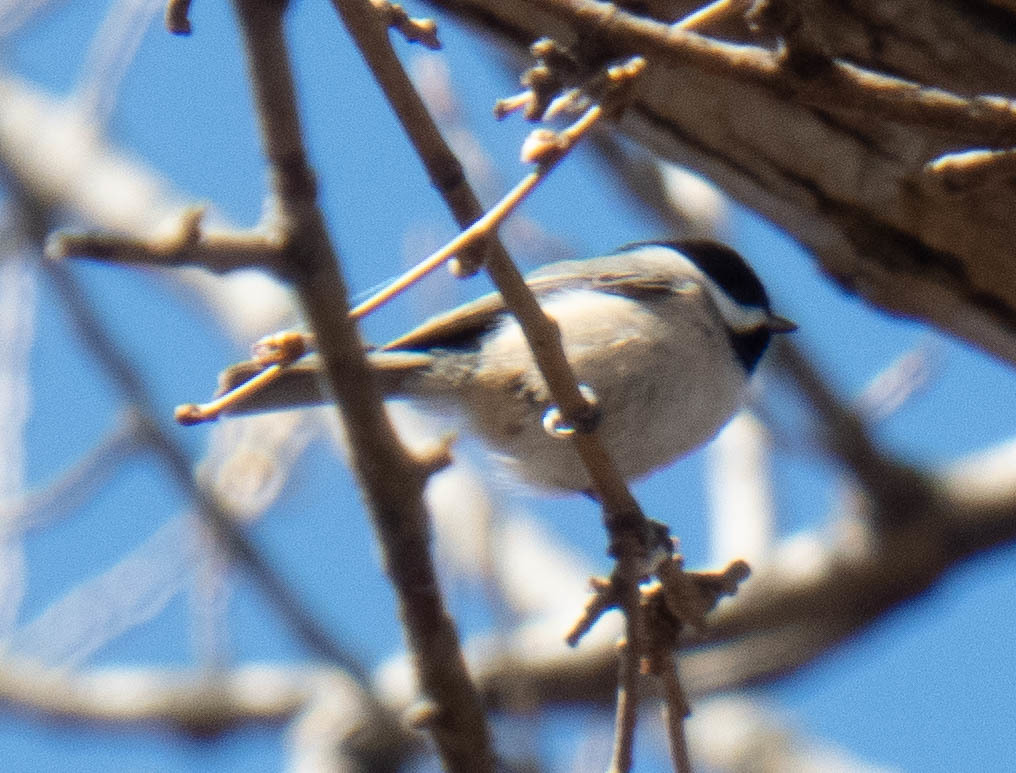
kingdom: Animalia
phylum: Chordata
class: Aves
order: Passeriformes
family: Paridae
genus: Poecile
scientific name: Poecile carolinensis
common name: Carolina chickadee
